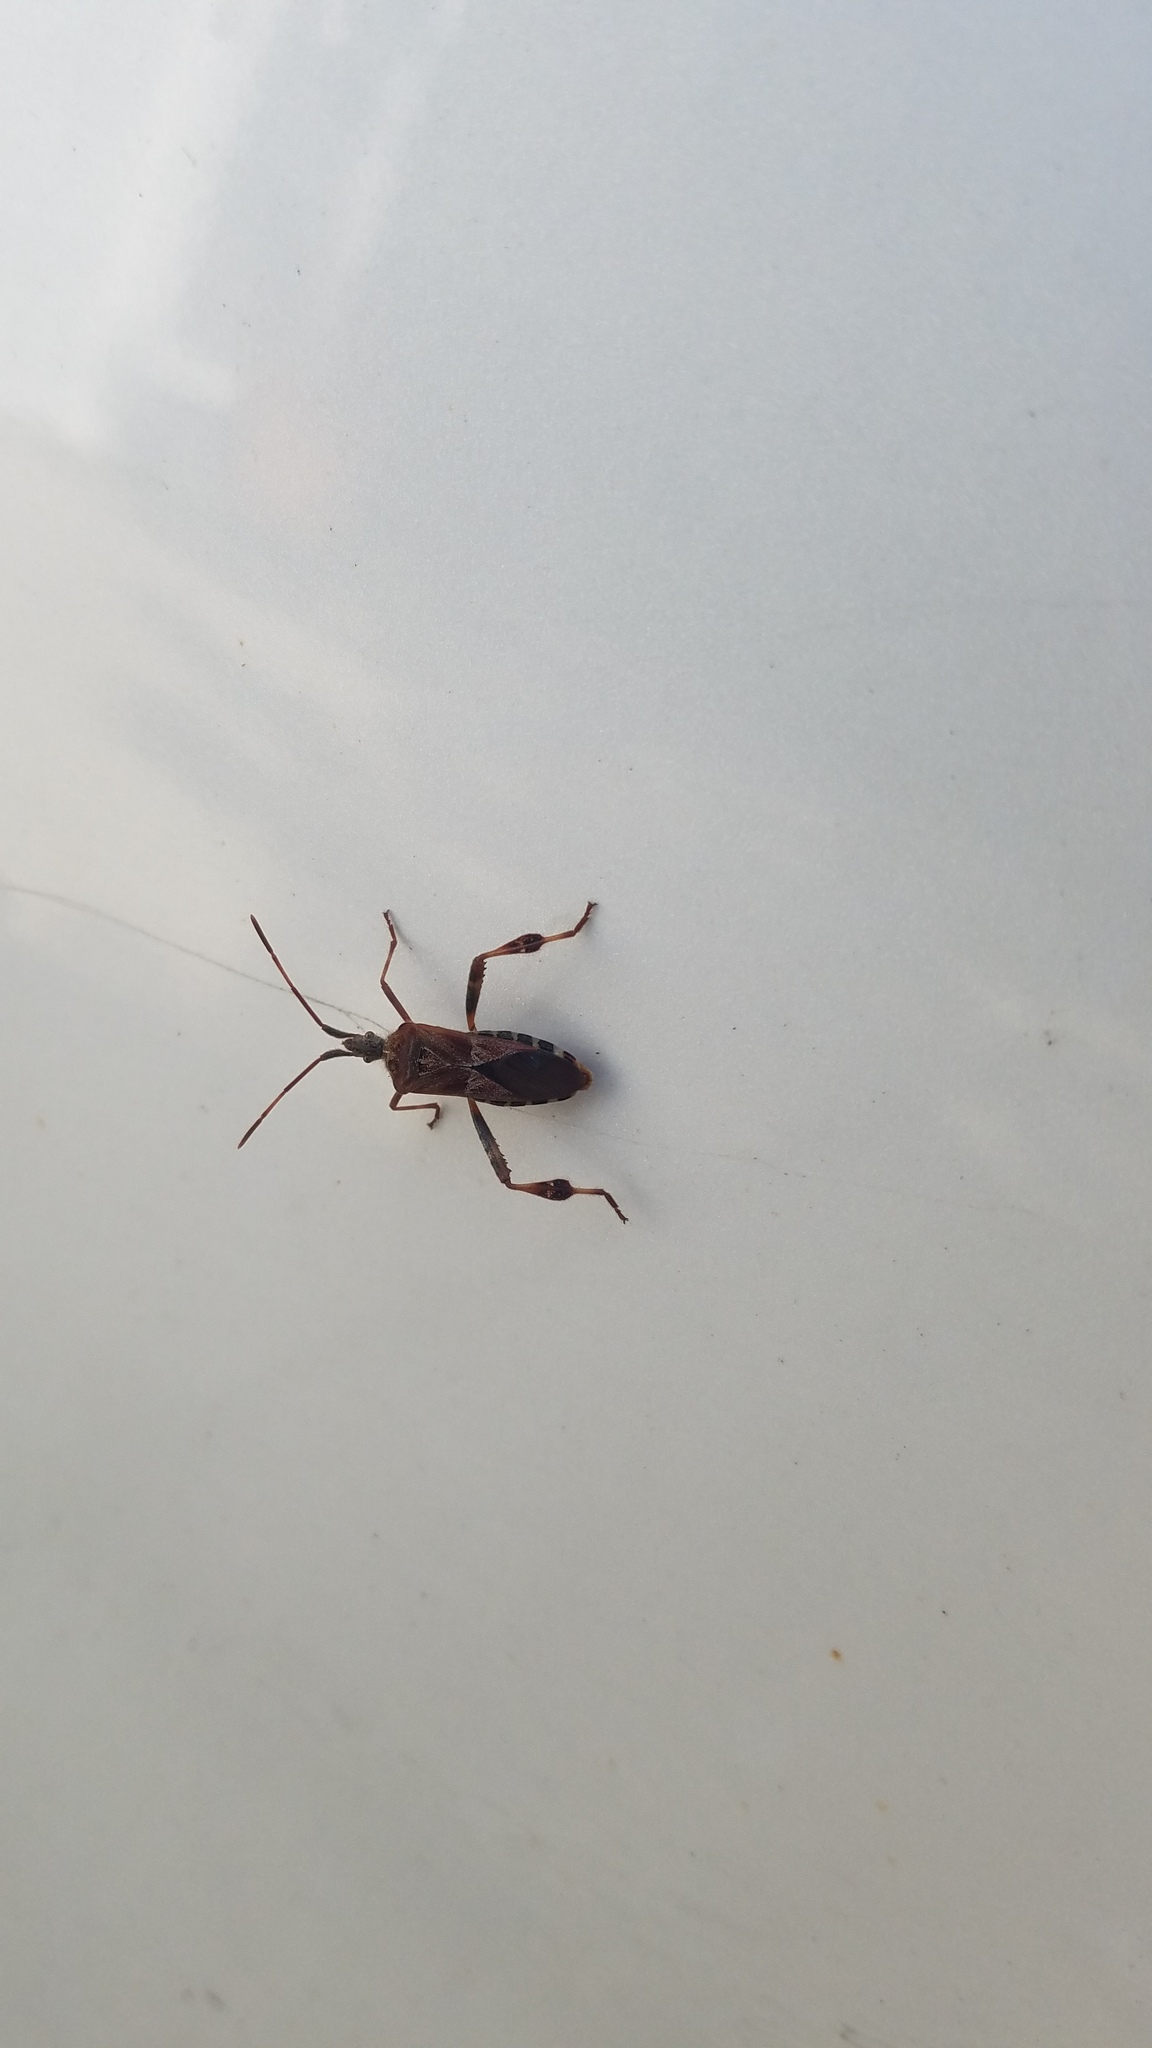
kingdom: Animalia
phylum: Arthropoda
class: Insecta
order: Hemiptera
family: Coreidae
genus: Leptoglossus
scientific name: Leptoglossus occidentalis
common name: Western conifer-seed bug
